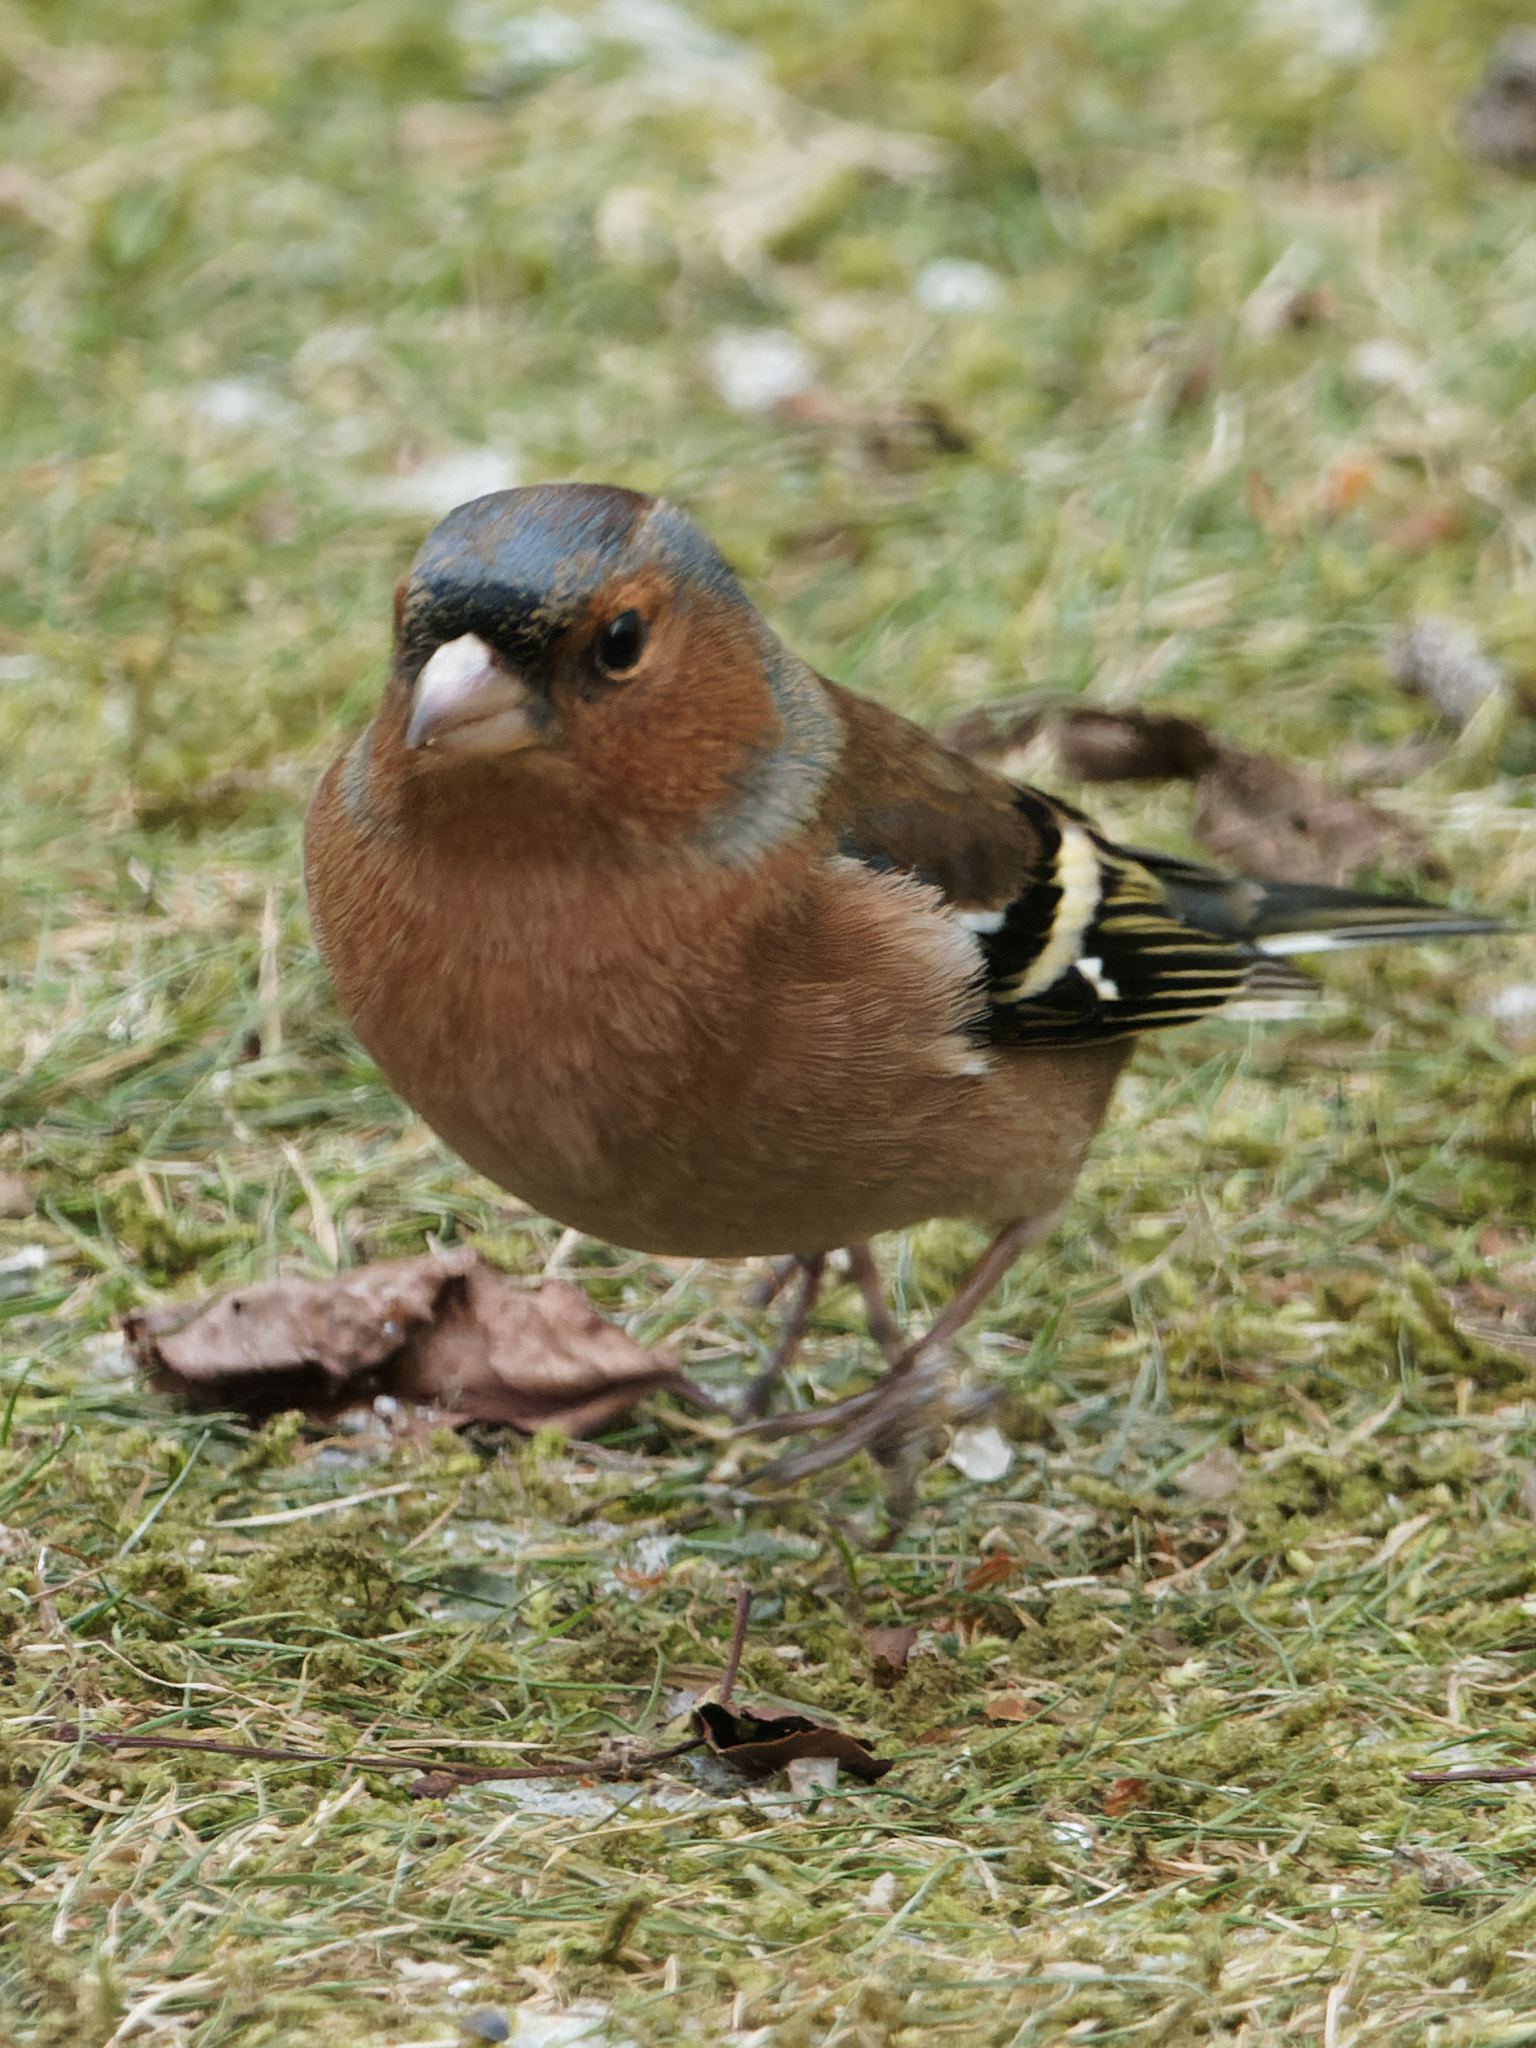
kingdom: Animalia
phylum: Chordata
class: Aves
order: Passeriformes
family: Fringillidae
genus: Fringilla
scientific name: Fringilla coelebs
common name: Common chaffinch
